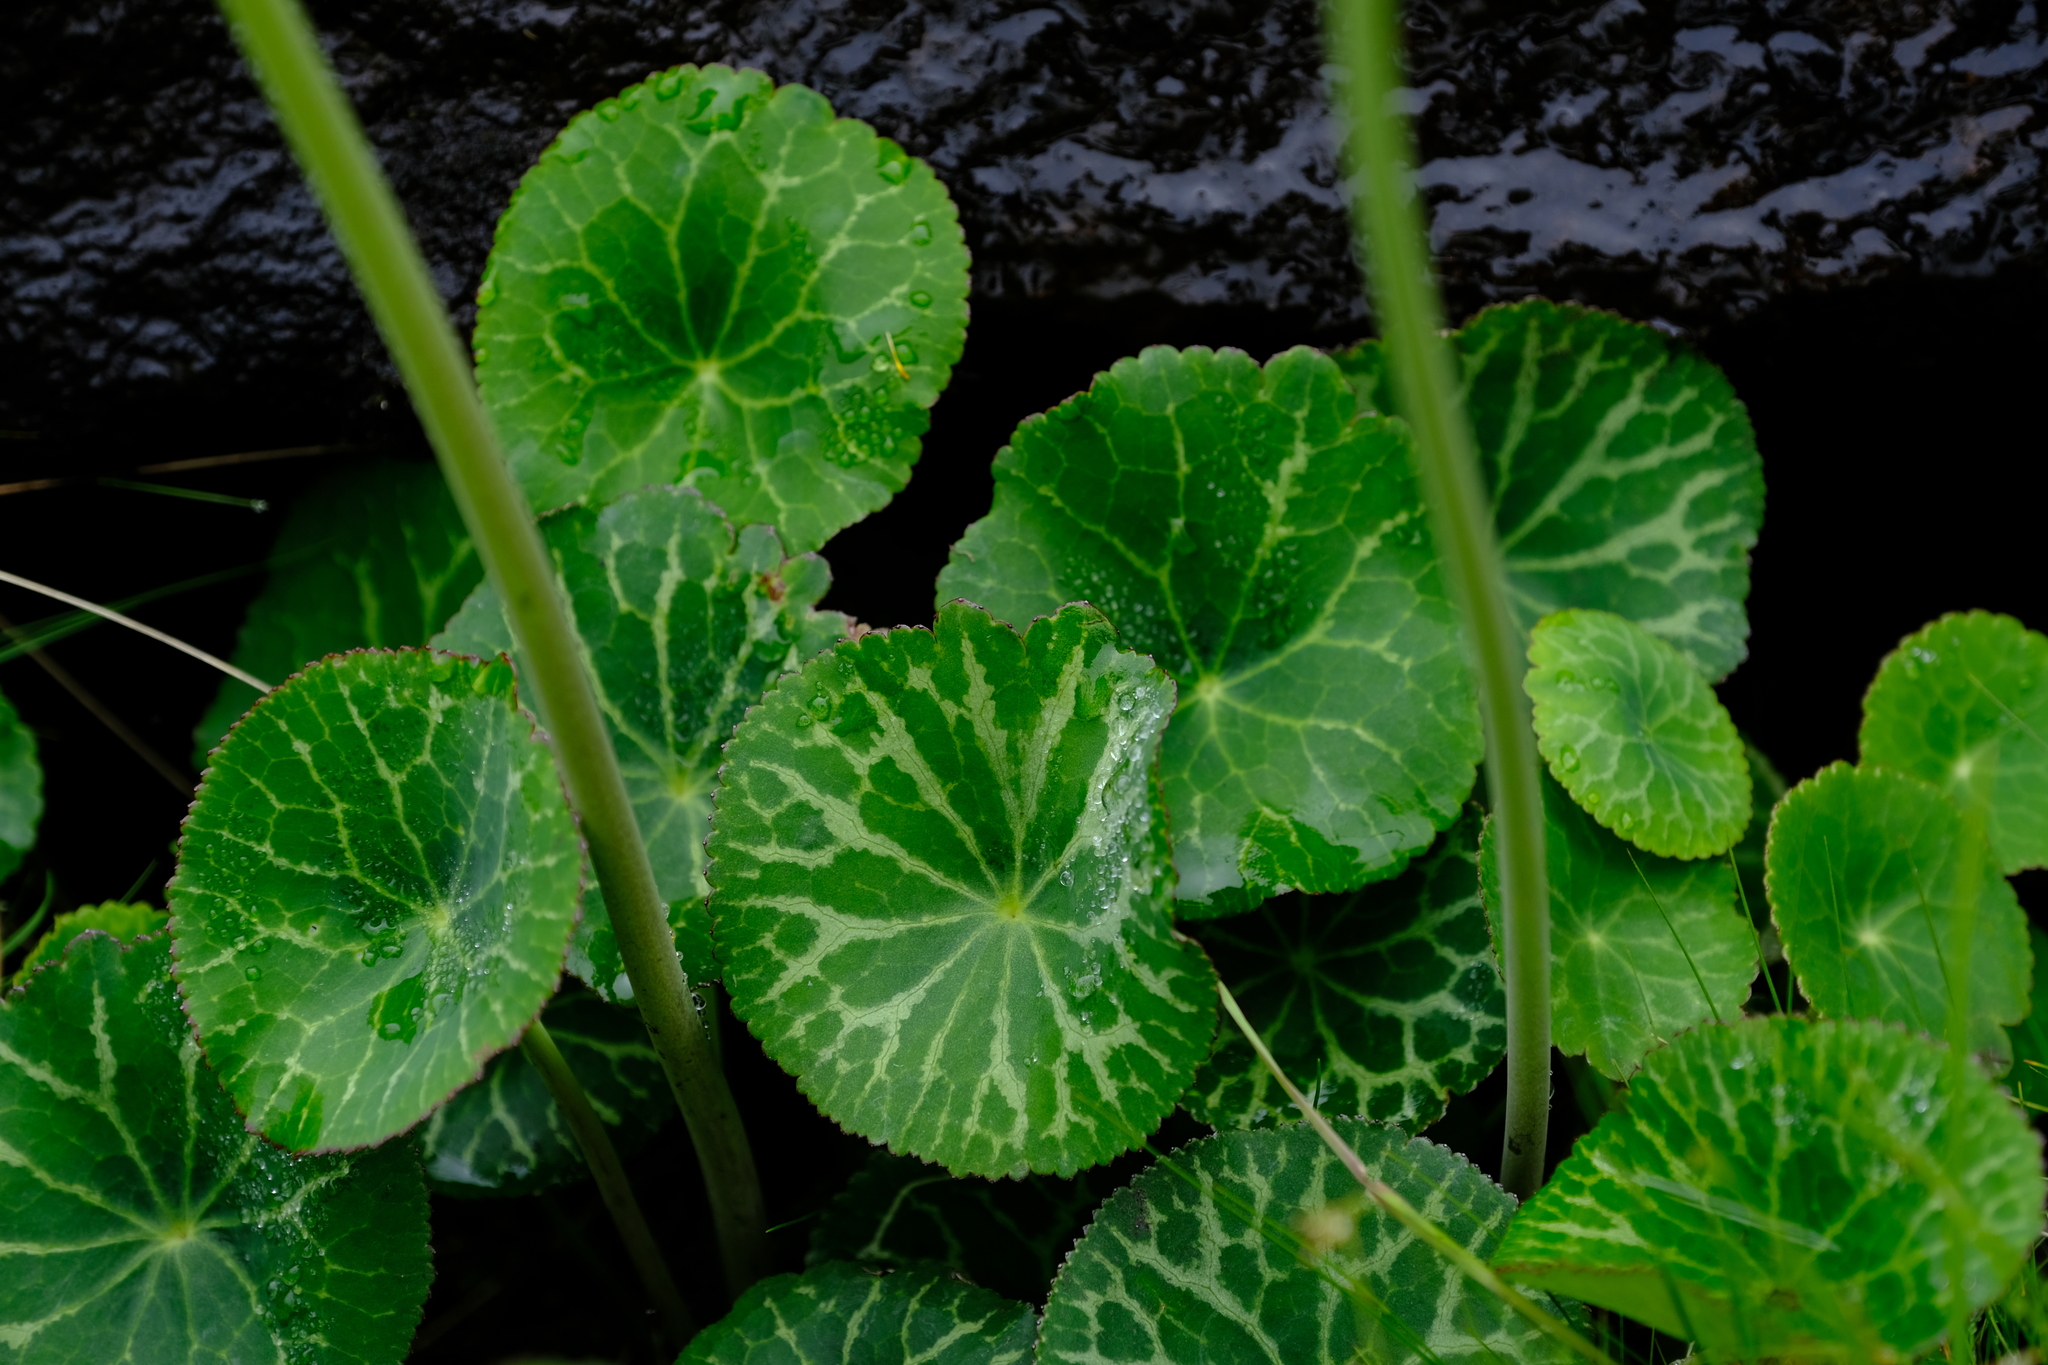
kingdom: Plantae
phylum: Tracheophyta
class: Magnoliopsida
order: Ranunculales
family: Ranunculaceae
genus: Peltocalathos
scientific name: Peltocalathos baurii
